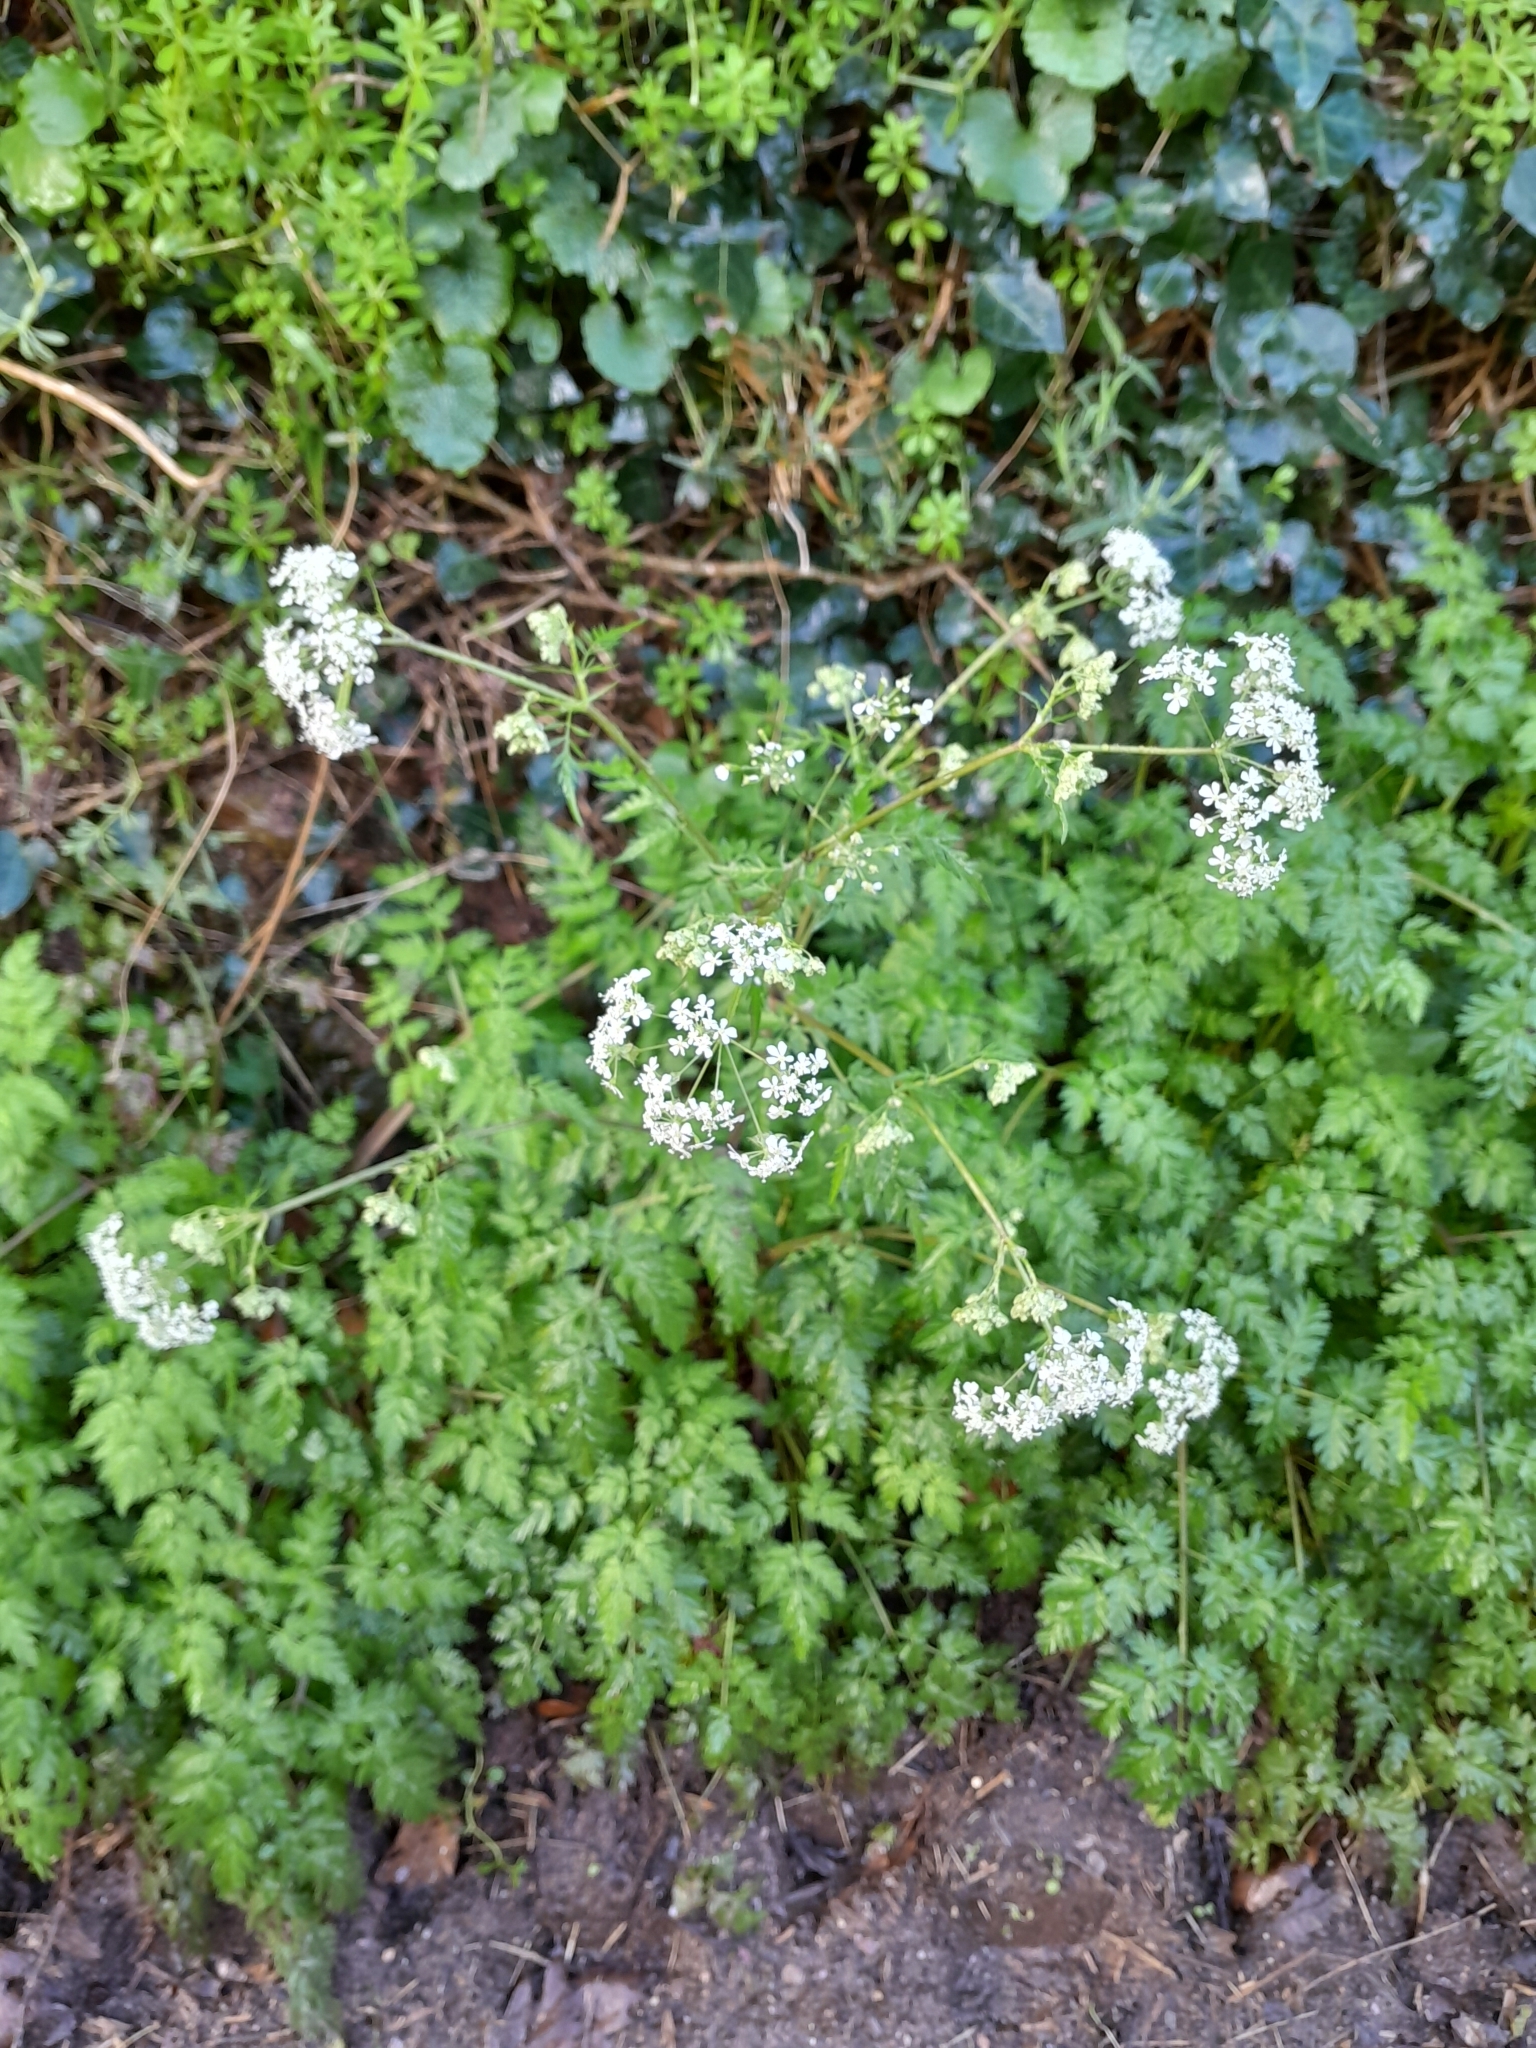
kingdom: Plantae
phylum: Tracheophyta
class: Magnoliopsida
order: Apiales
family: Apiaceae
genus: Anthriscus
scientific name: Anthriscus sylvestris
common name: Cow parsley
